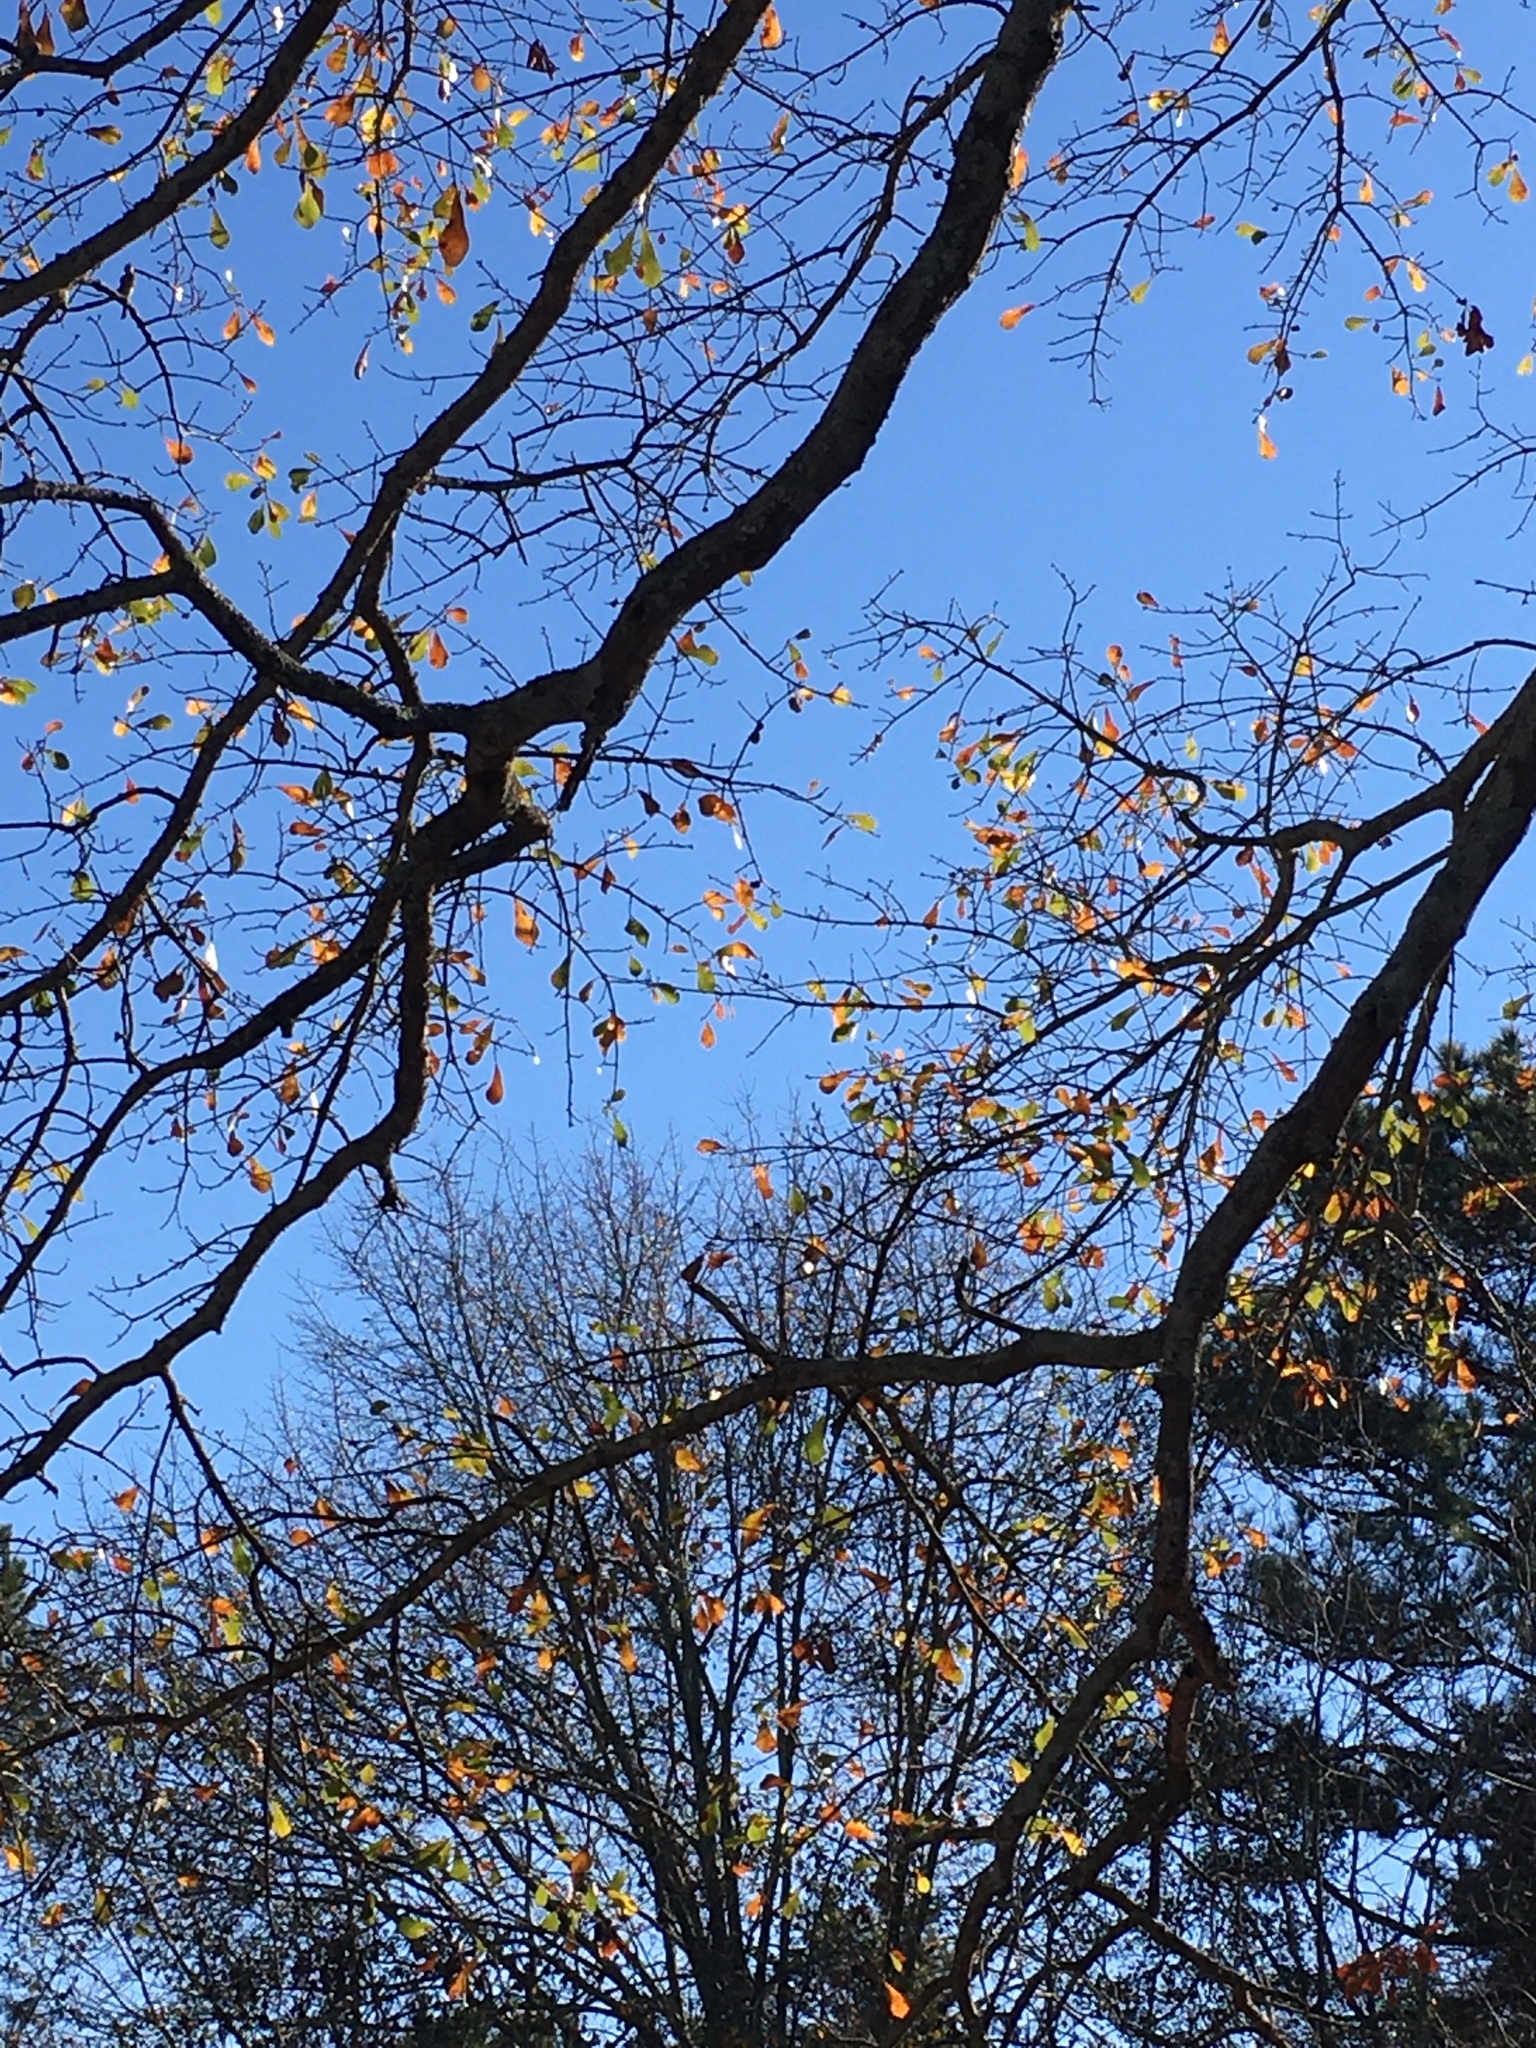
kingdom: Plantae
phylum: Tracheophyta
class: Magnoliopsida
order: Fagales
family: Fagaceae
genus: Quercus
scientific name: Quercus nigra
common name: Water oak
